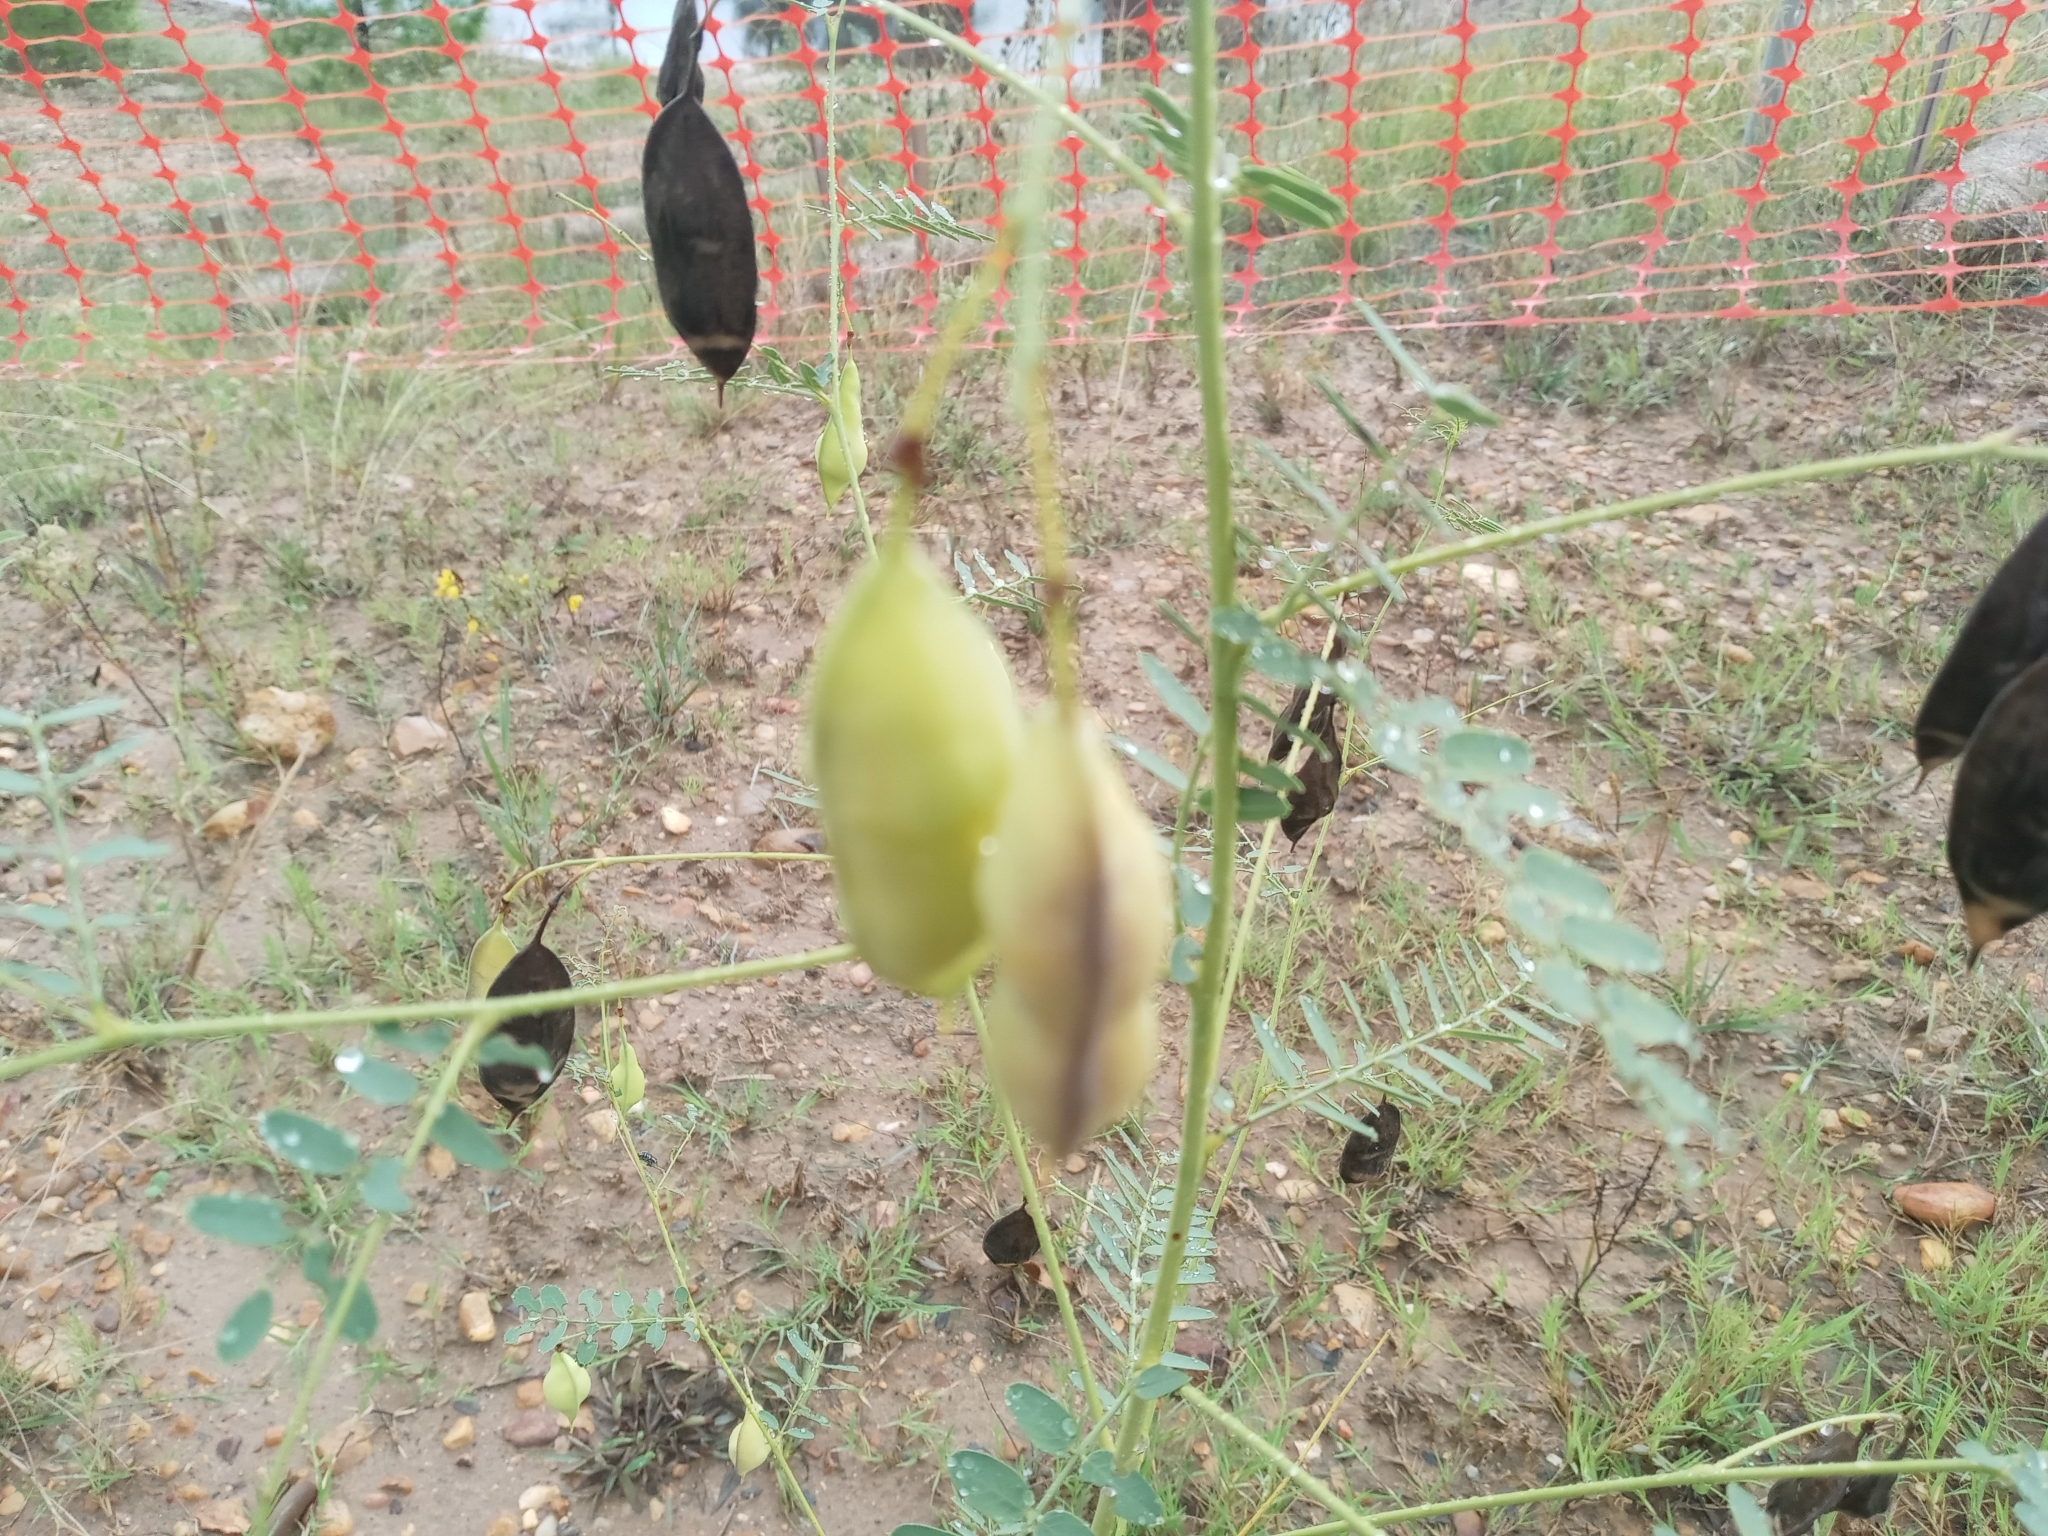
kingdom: Plantae
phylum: Tracheophyta
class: Magnoliopsida
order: Fabales
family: Fabaceae
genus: Sesbania
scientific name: Sesbania vesicaria
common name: Bagpod
